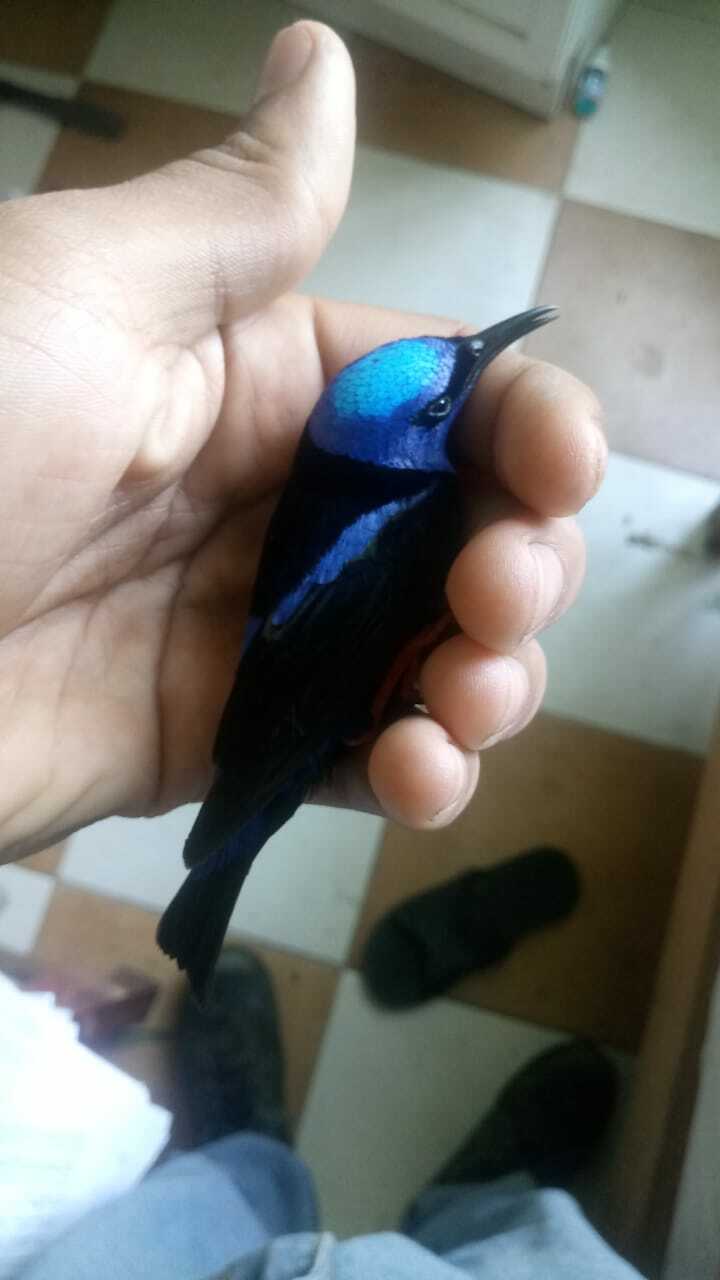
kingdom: Animalia
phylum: Chordata
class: Aves
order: Passeriformes
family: Thraupidae
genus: Cyanerpes
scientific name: Cyanerpes cyaneus
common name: Red-legged honeycreeper
